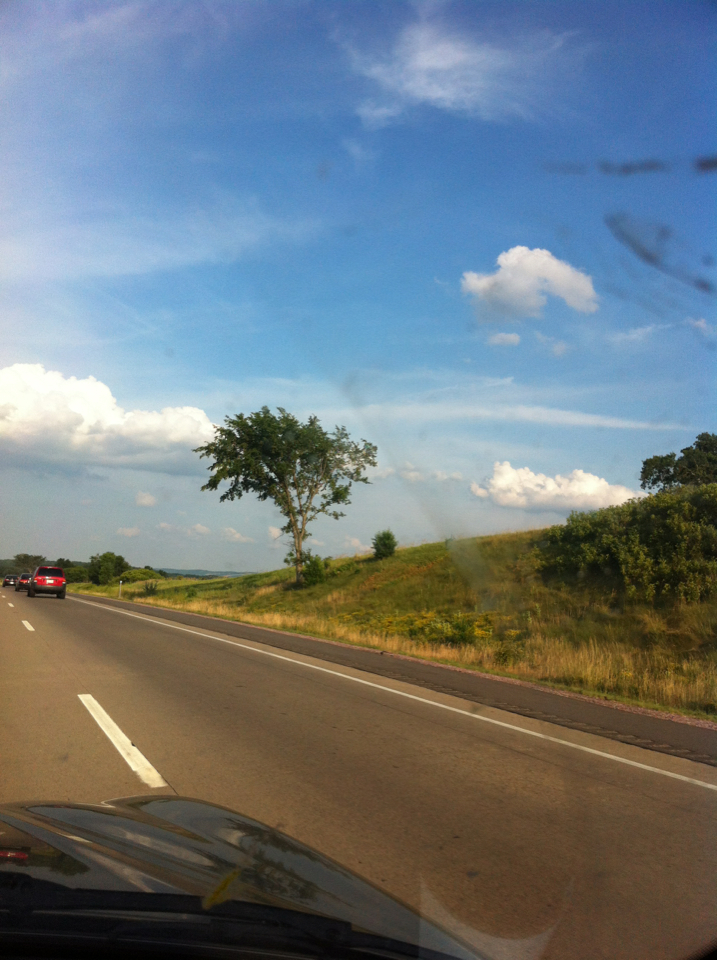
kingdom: Plantae
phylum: Tracheophyta
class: Magnoliopsida
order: Rosales
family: Ulmaceae
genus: Ulmus
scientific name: Ulmus americana
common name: American elm
